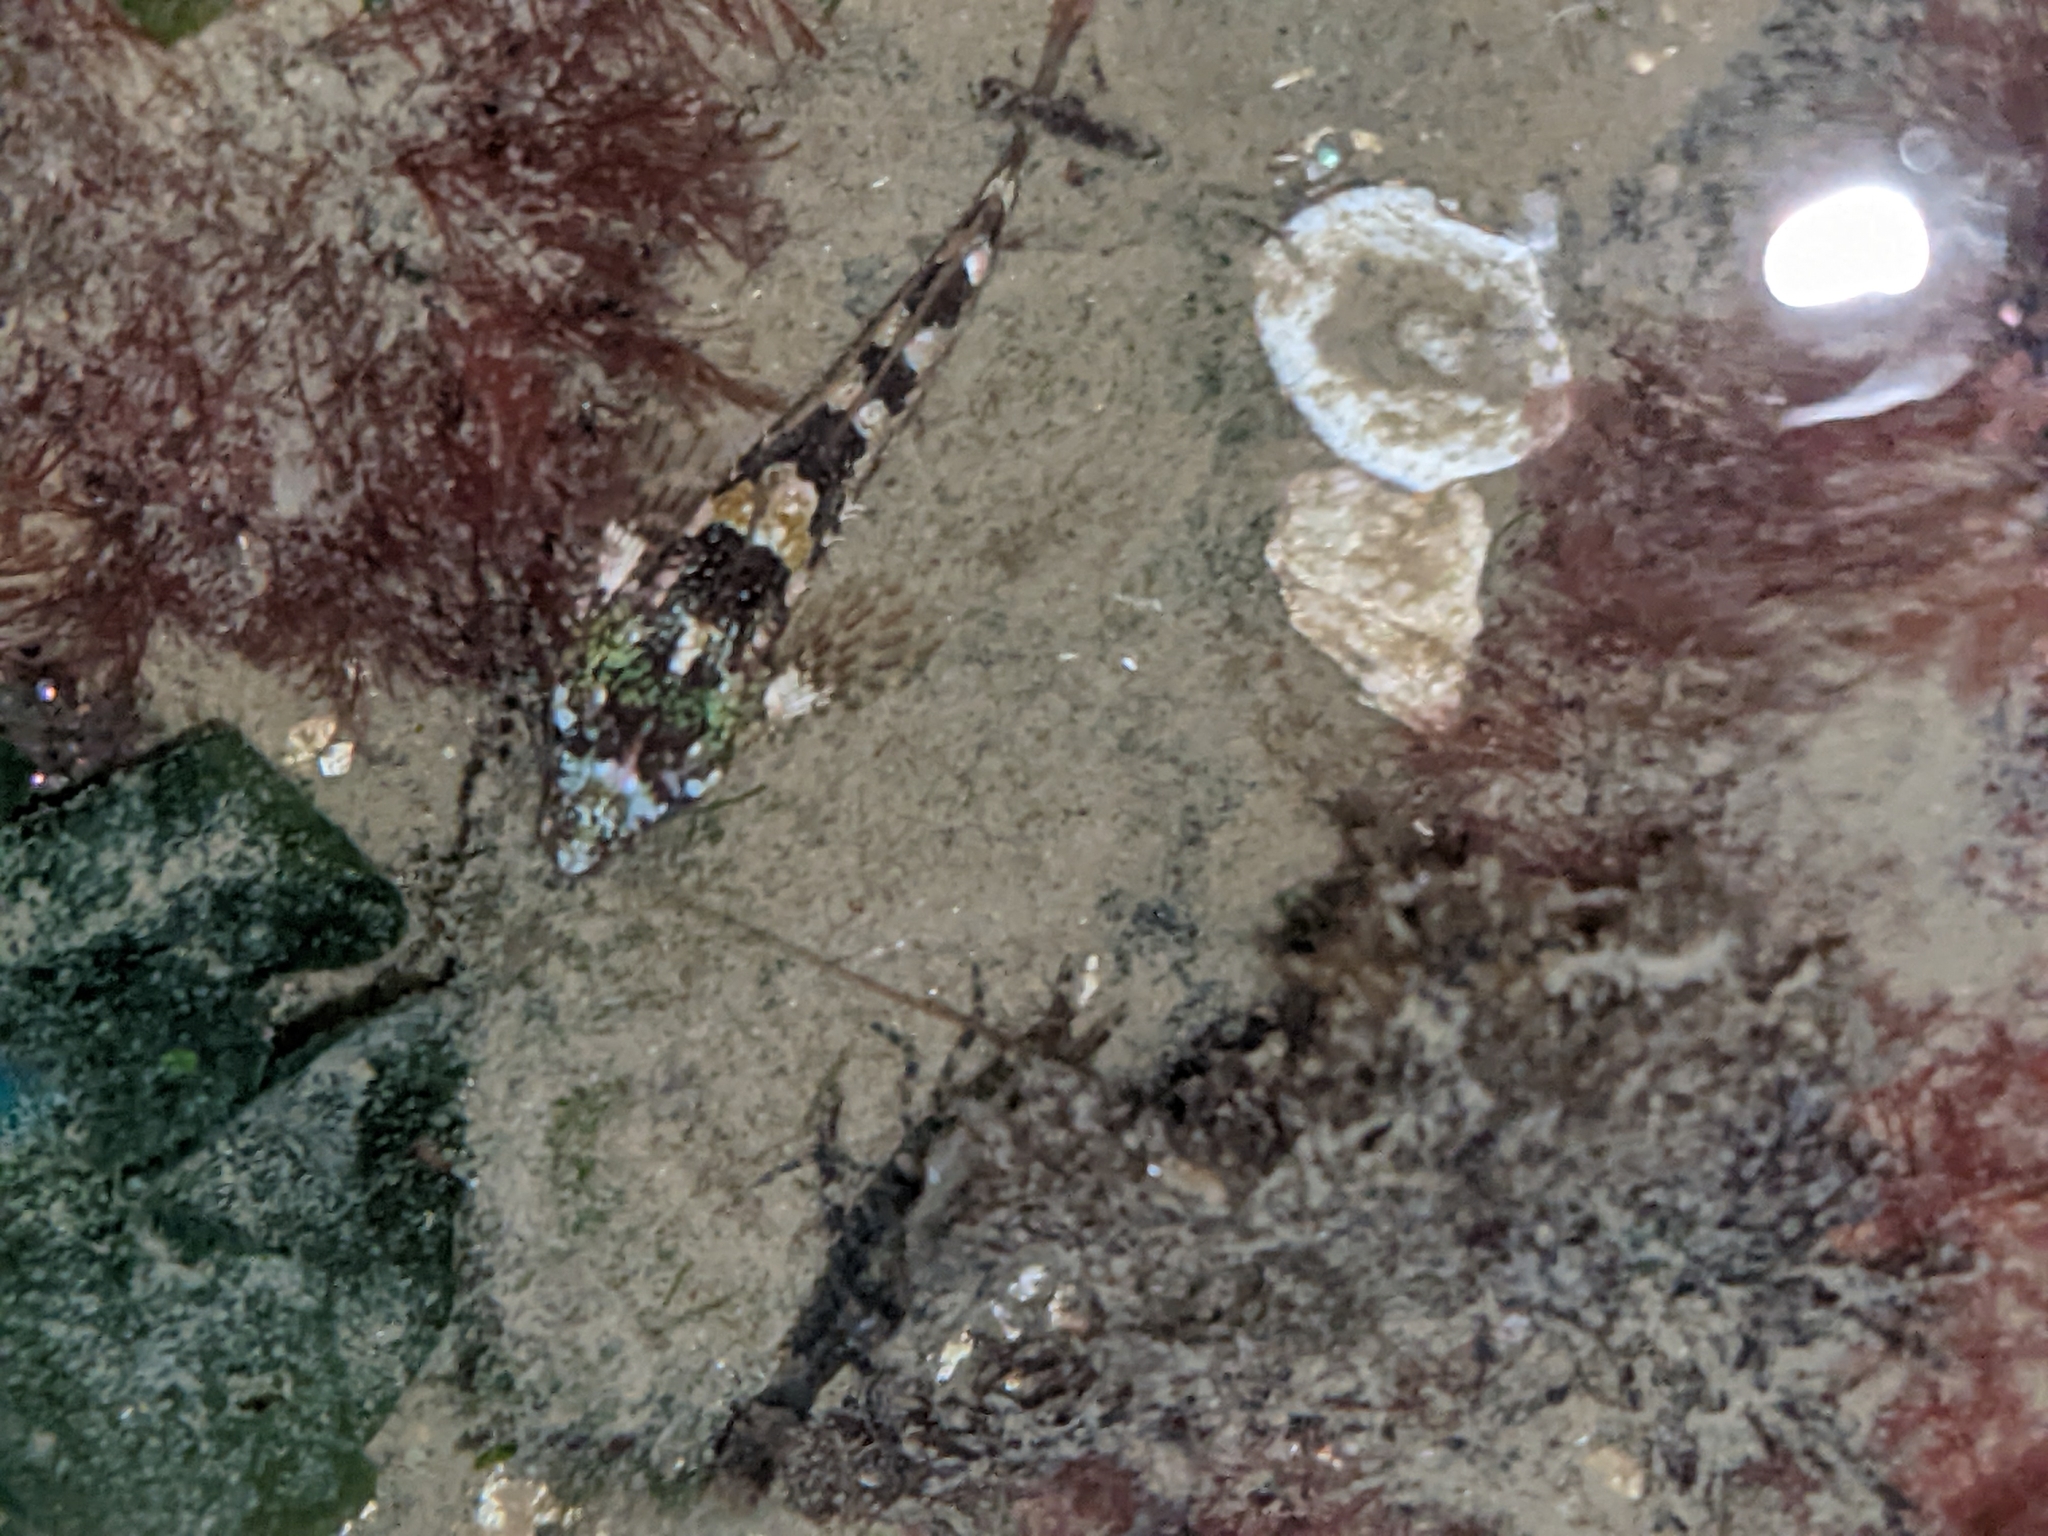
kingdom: Animalia
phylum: Chordata
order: Scorpaeniformes
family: Cottidae
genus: Oligocottus
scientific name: Oligocottus maculosus
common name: Tidepool sculpin
